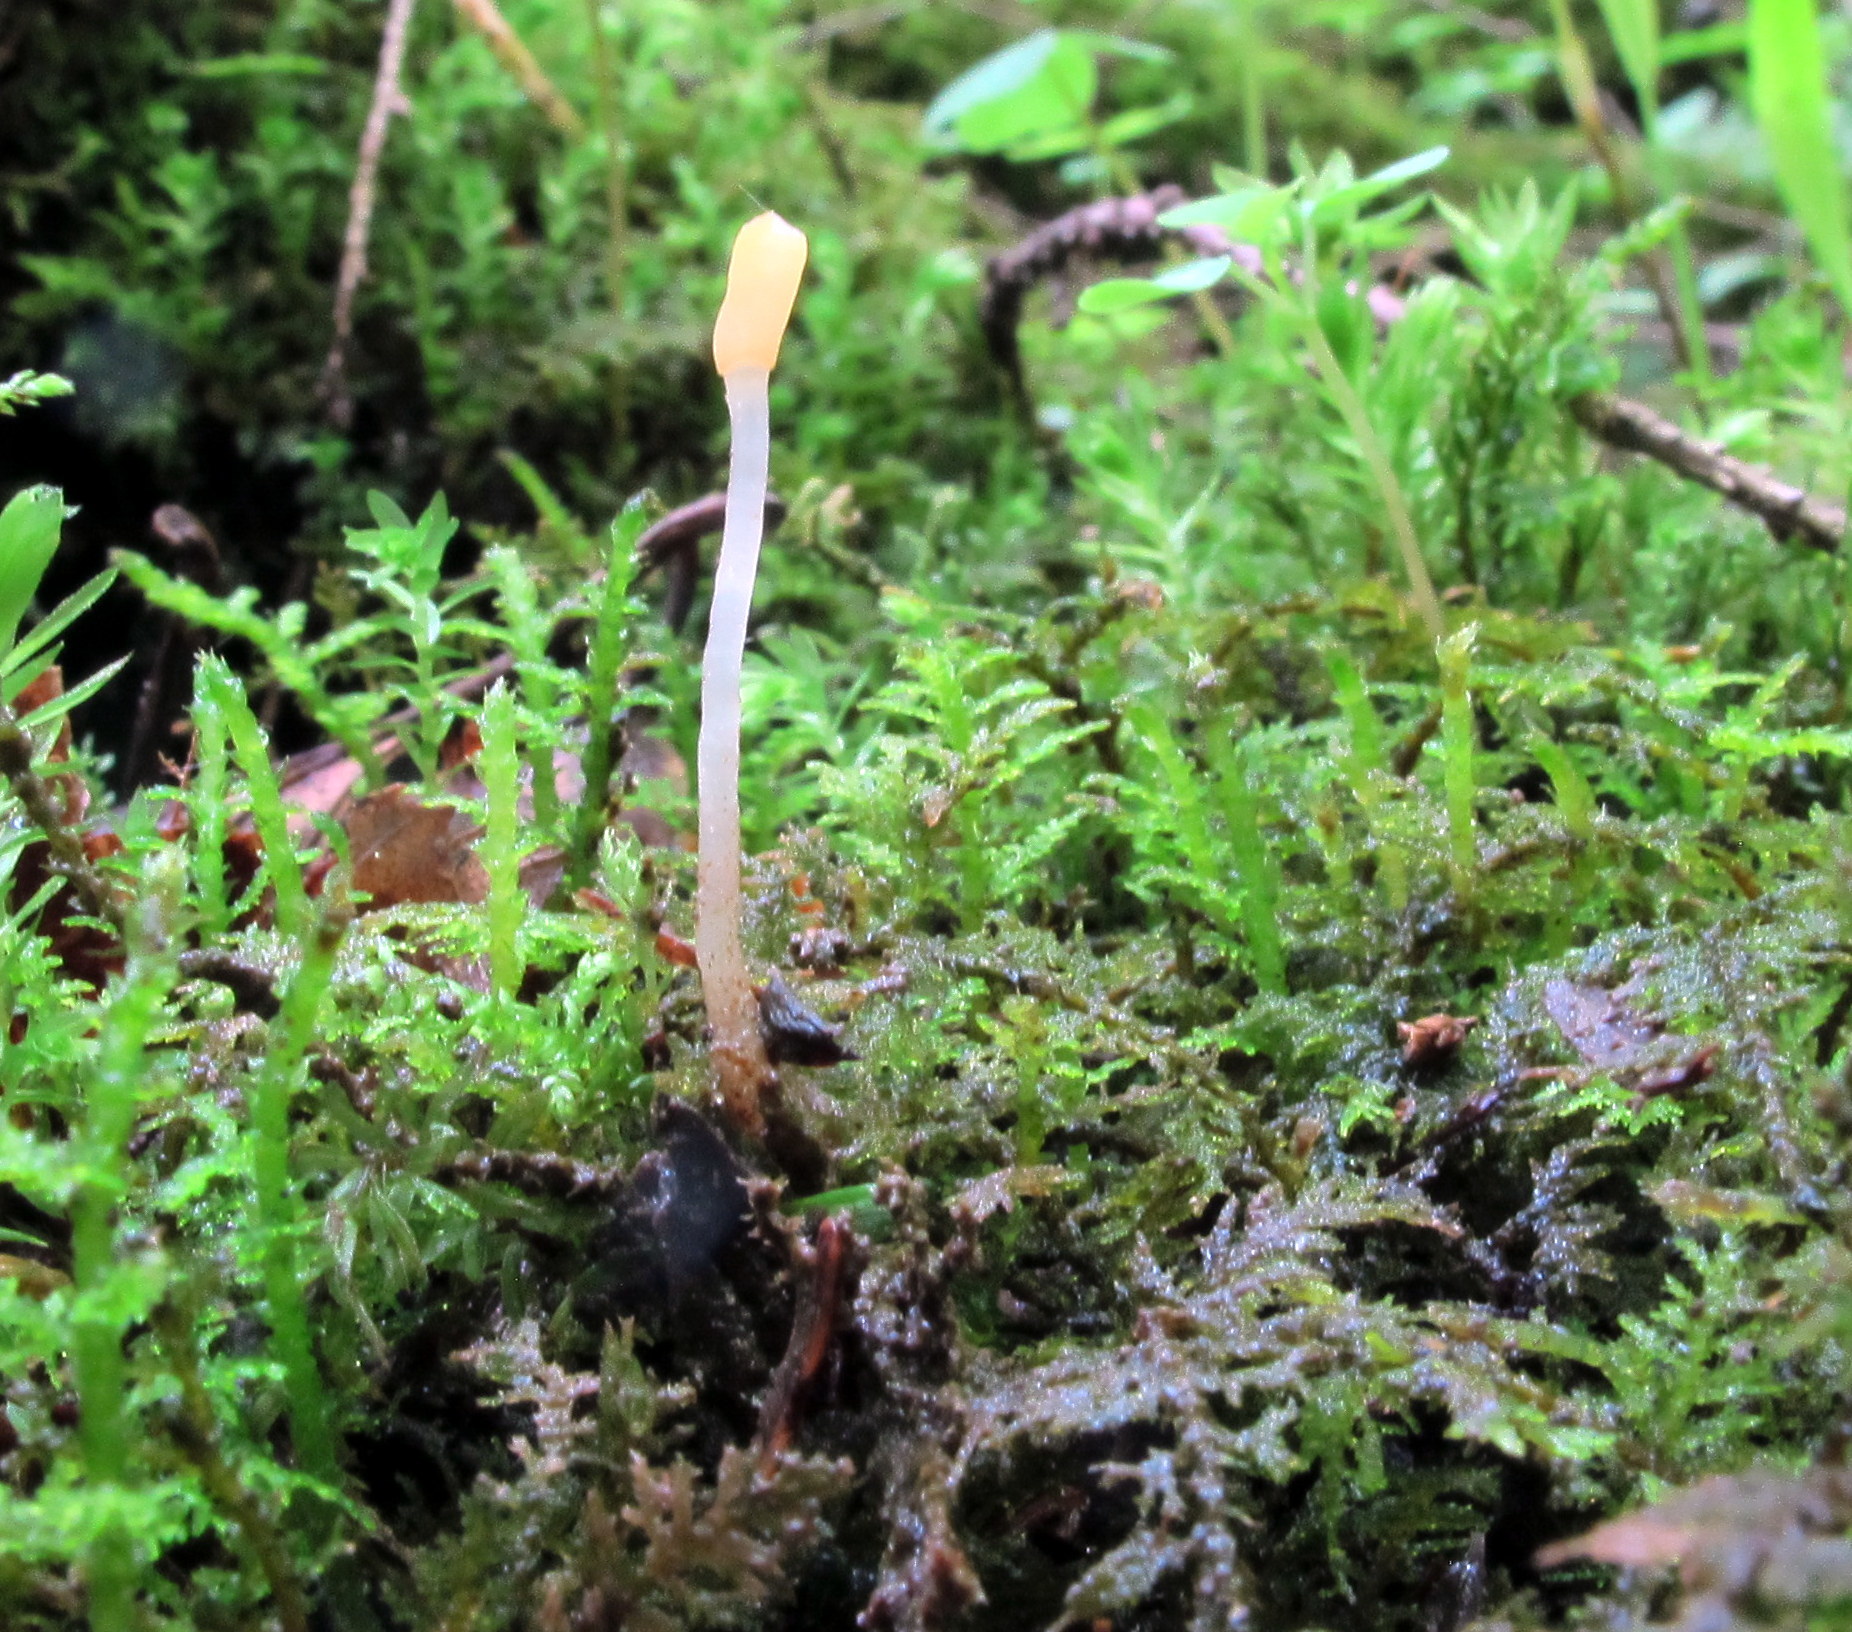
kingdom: Fungi
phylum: Ascomycota
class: Leotiomycetes
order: Helotiales
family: Sclerotiniaceae
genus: Mitrula
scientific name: Mitrula elegans
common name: Swamp beacon
